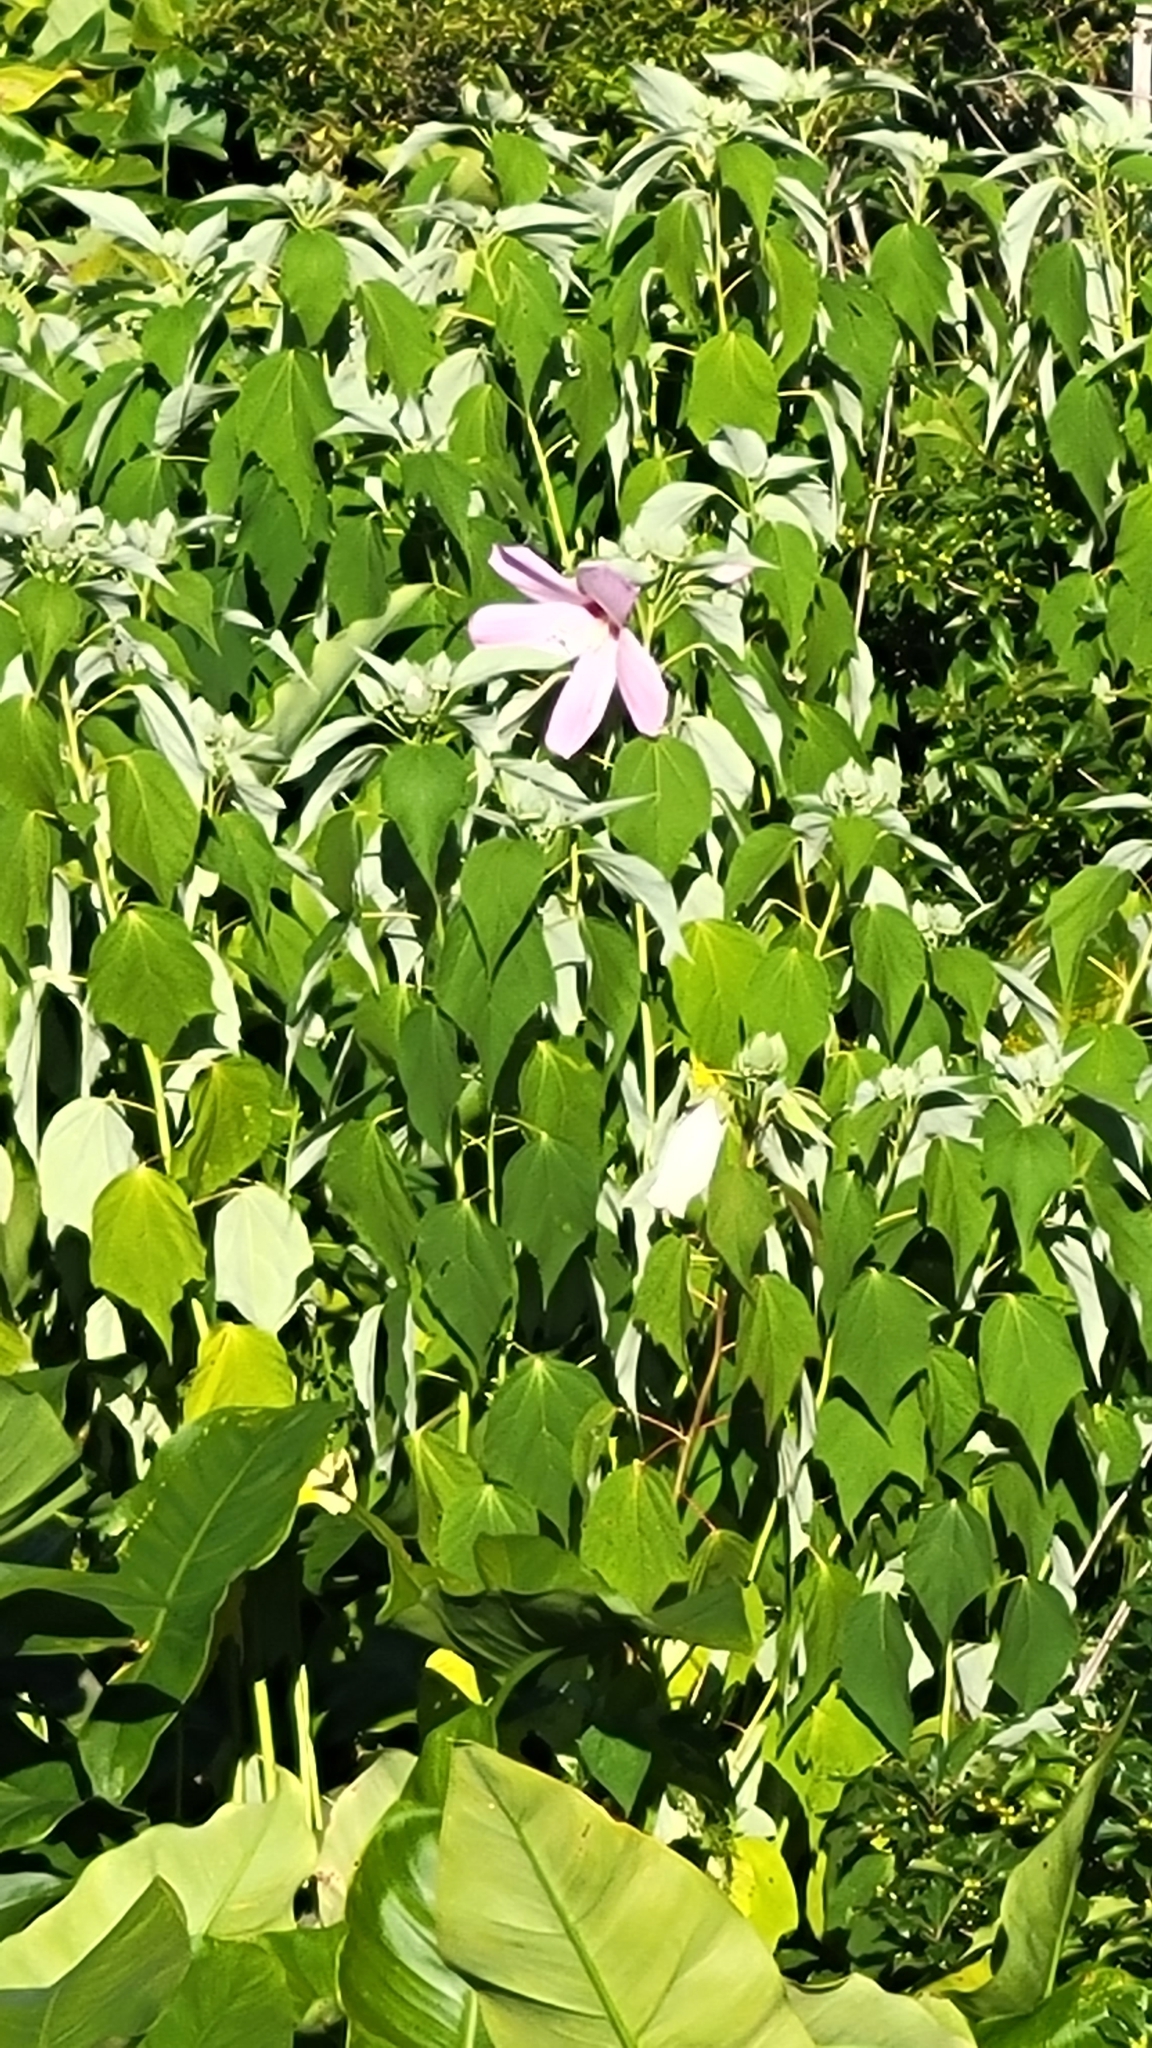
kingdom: Plantae
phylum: Tracheophyta
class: Magnoliopsida
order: Malvales
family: Malvaceae
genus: Hibiscus
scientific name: Hibiscus moscheutos
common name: Common rose-mallow
